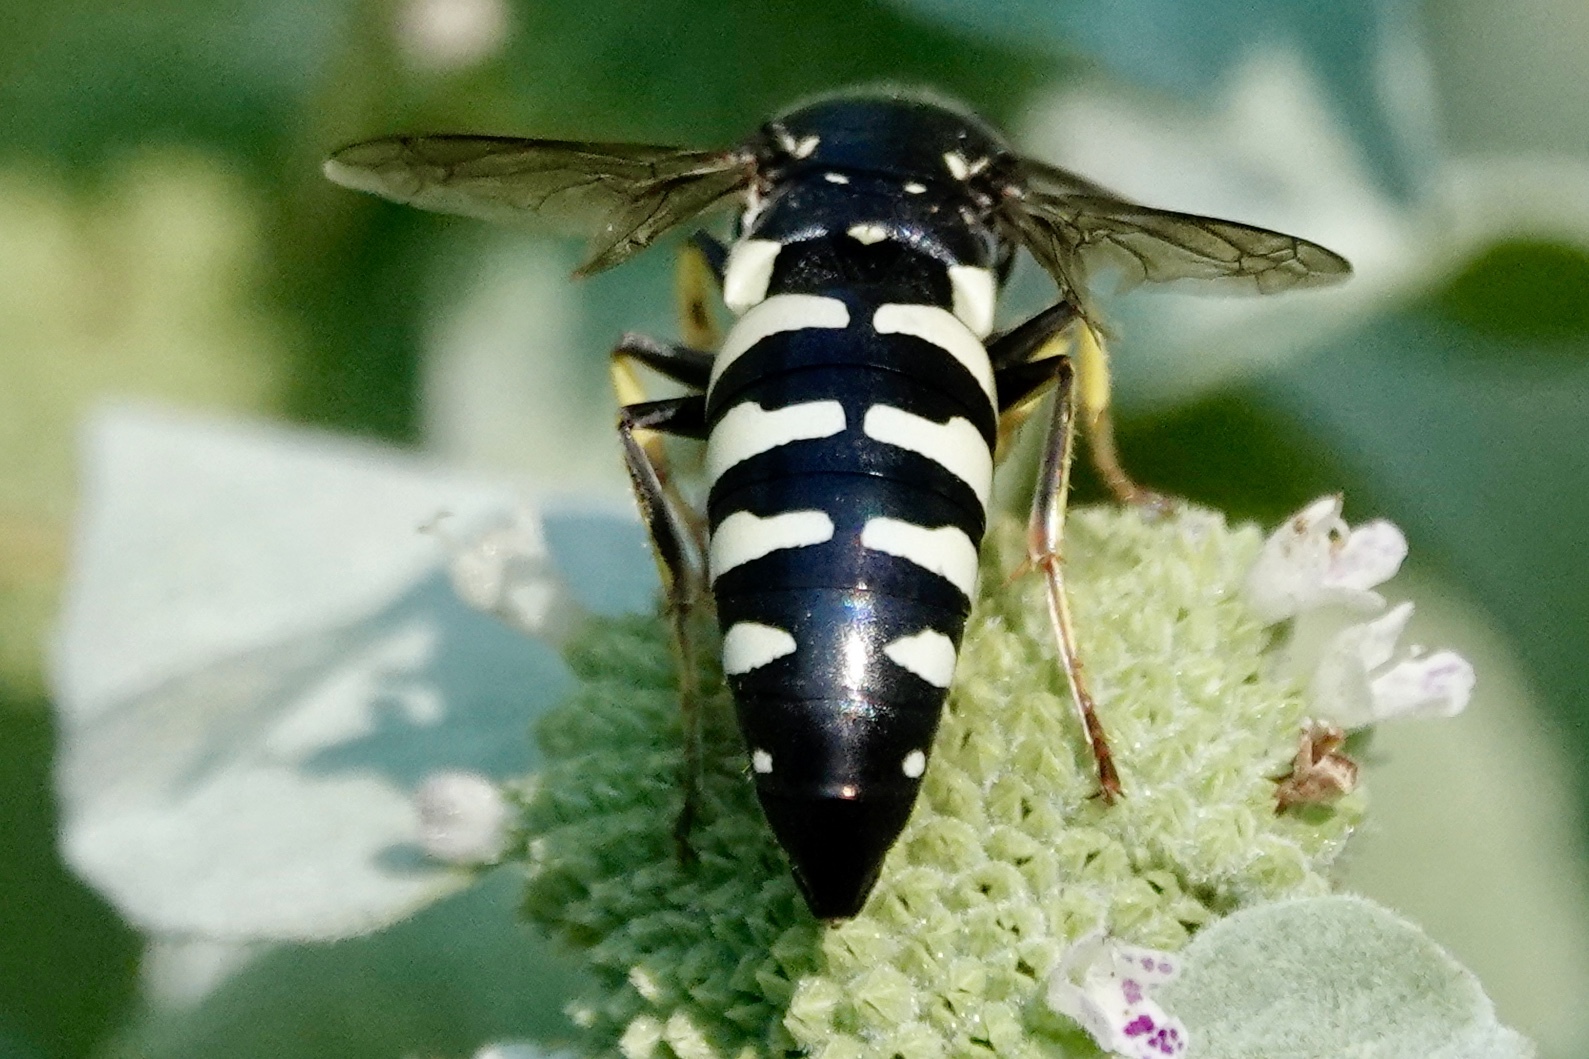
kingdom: Animalia
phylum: Arthropoda
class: Insecta
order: Hymenoptera
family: Crabronidae
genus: Bicyrtes
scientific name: Bicyrtes quadrifasciatus
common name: Four-banded stink bug hunter wasp
